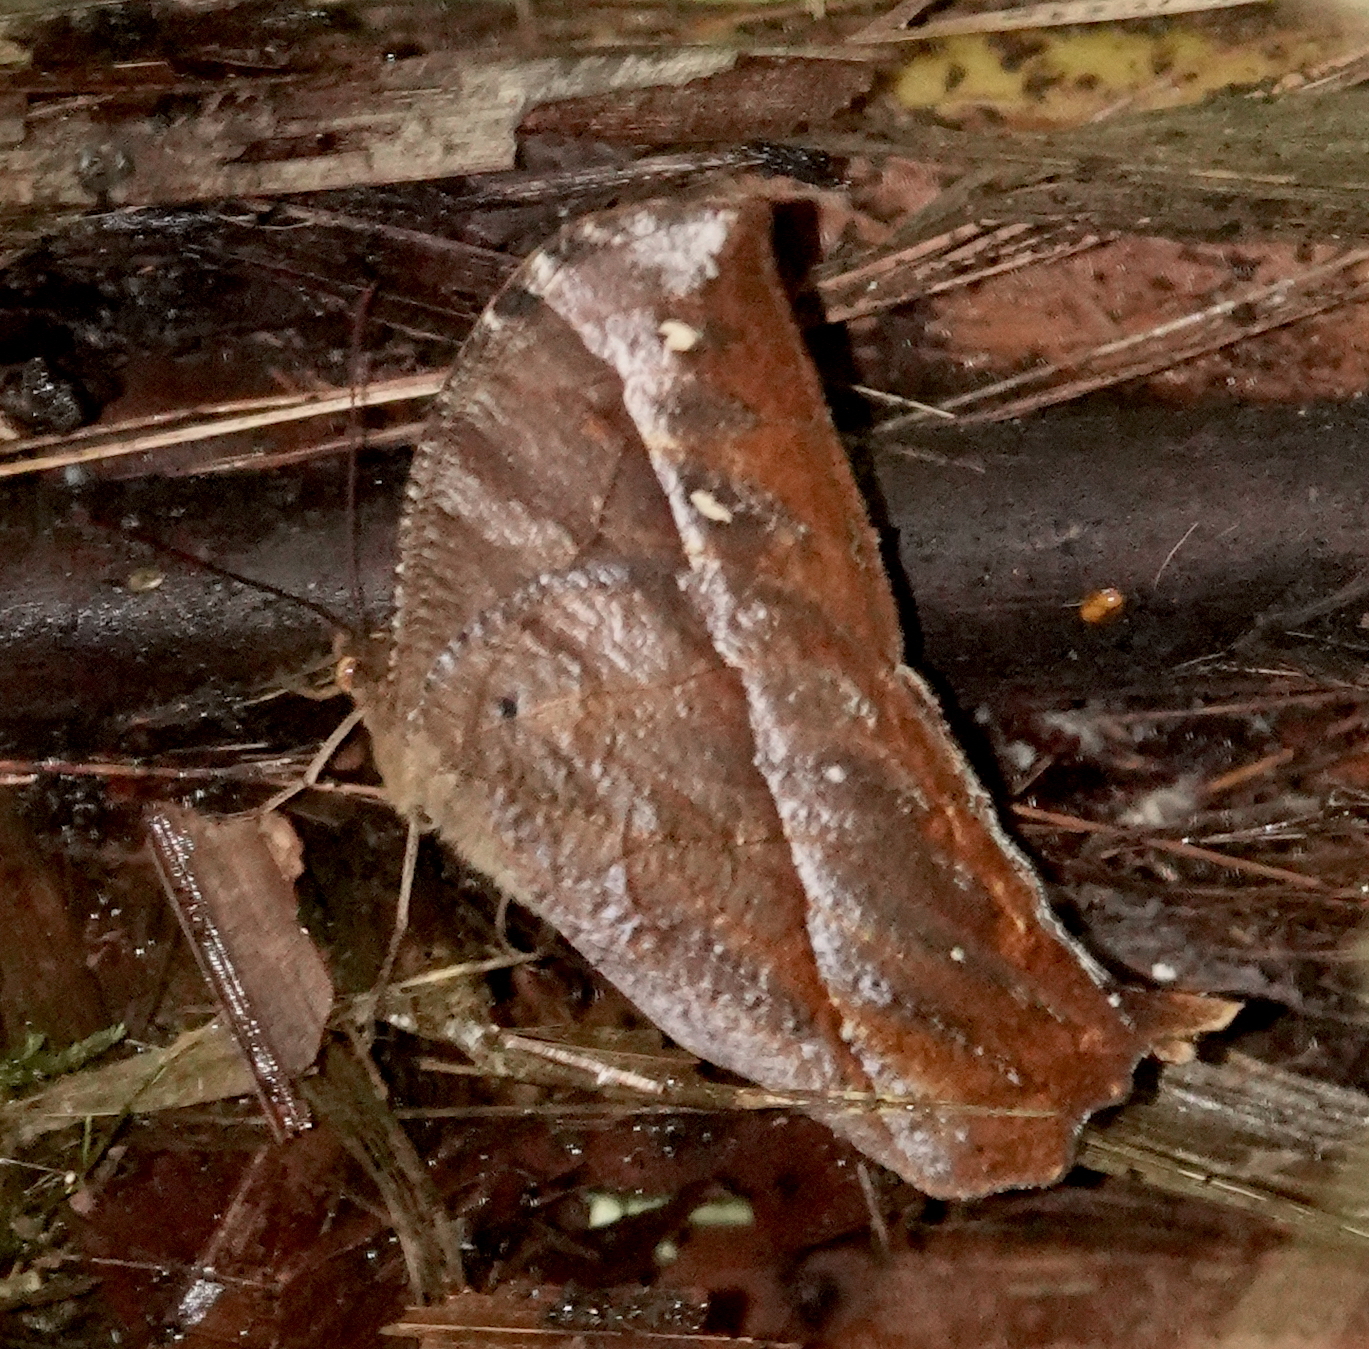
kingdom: Animalia
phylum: Arthropoda
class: Insecta
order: Lepidoptera
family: Nymphalidae
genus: Antirrhea
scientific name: Antirrhea geryon
